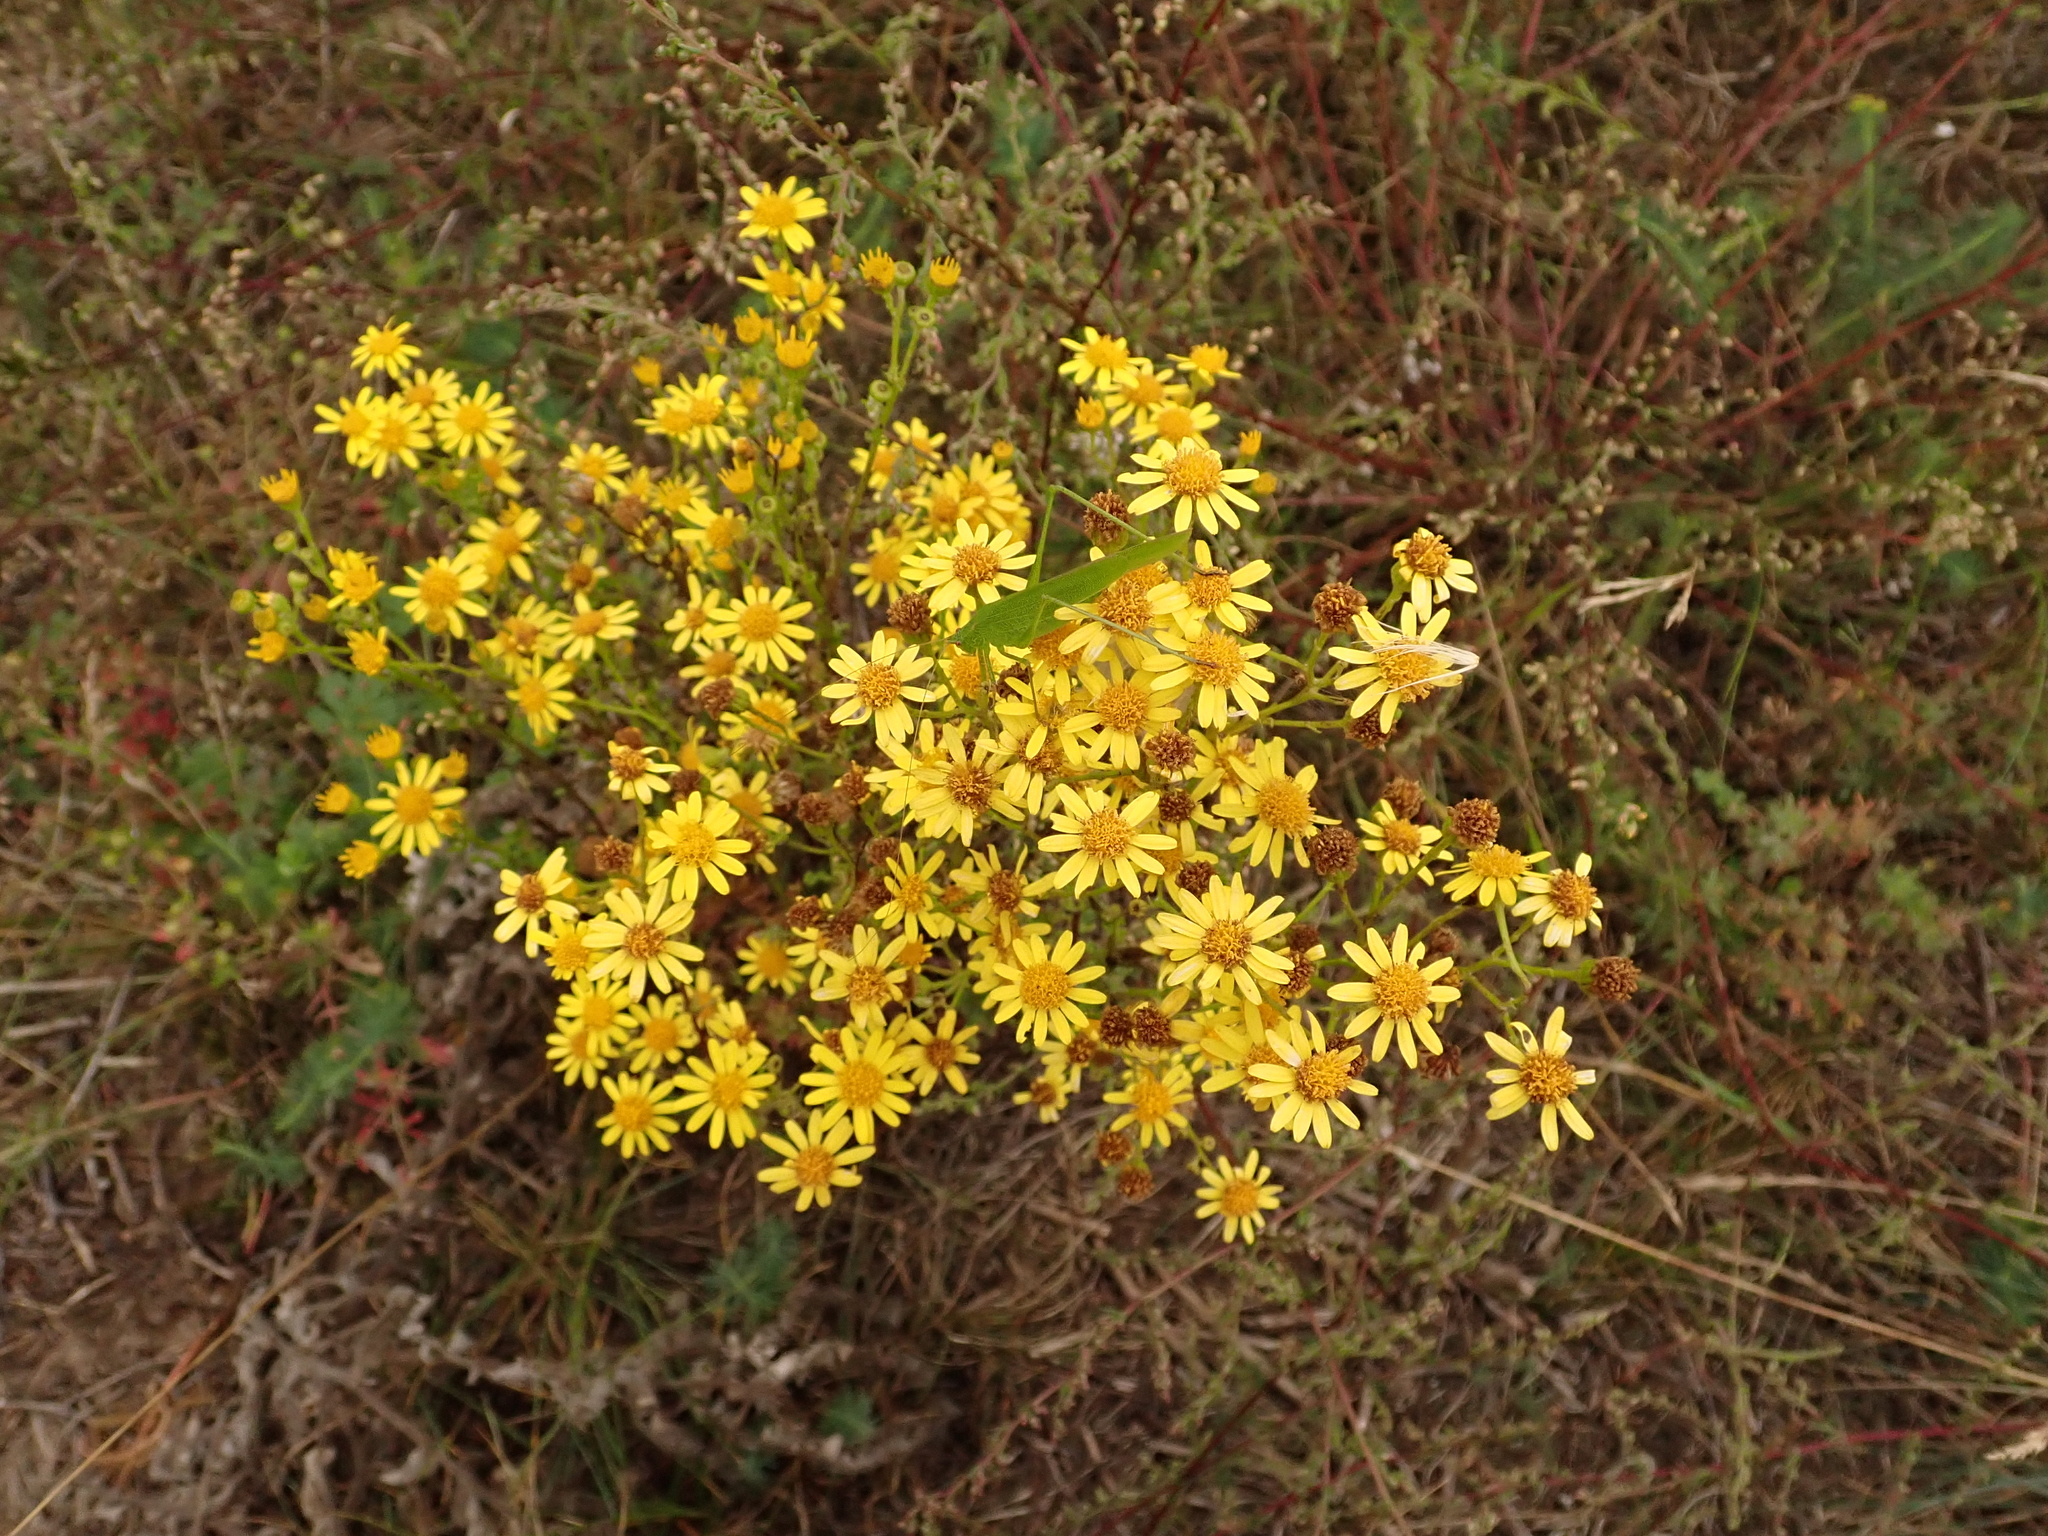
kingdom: Plantae
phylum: Tracheophyta
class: Magnoliopsida
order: Asterales
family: Asteraceae
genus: Jacobaea
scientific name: Jacobaea vulgaris
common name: Stinking willie
